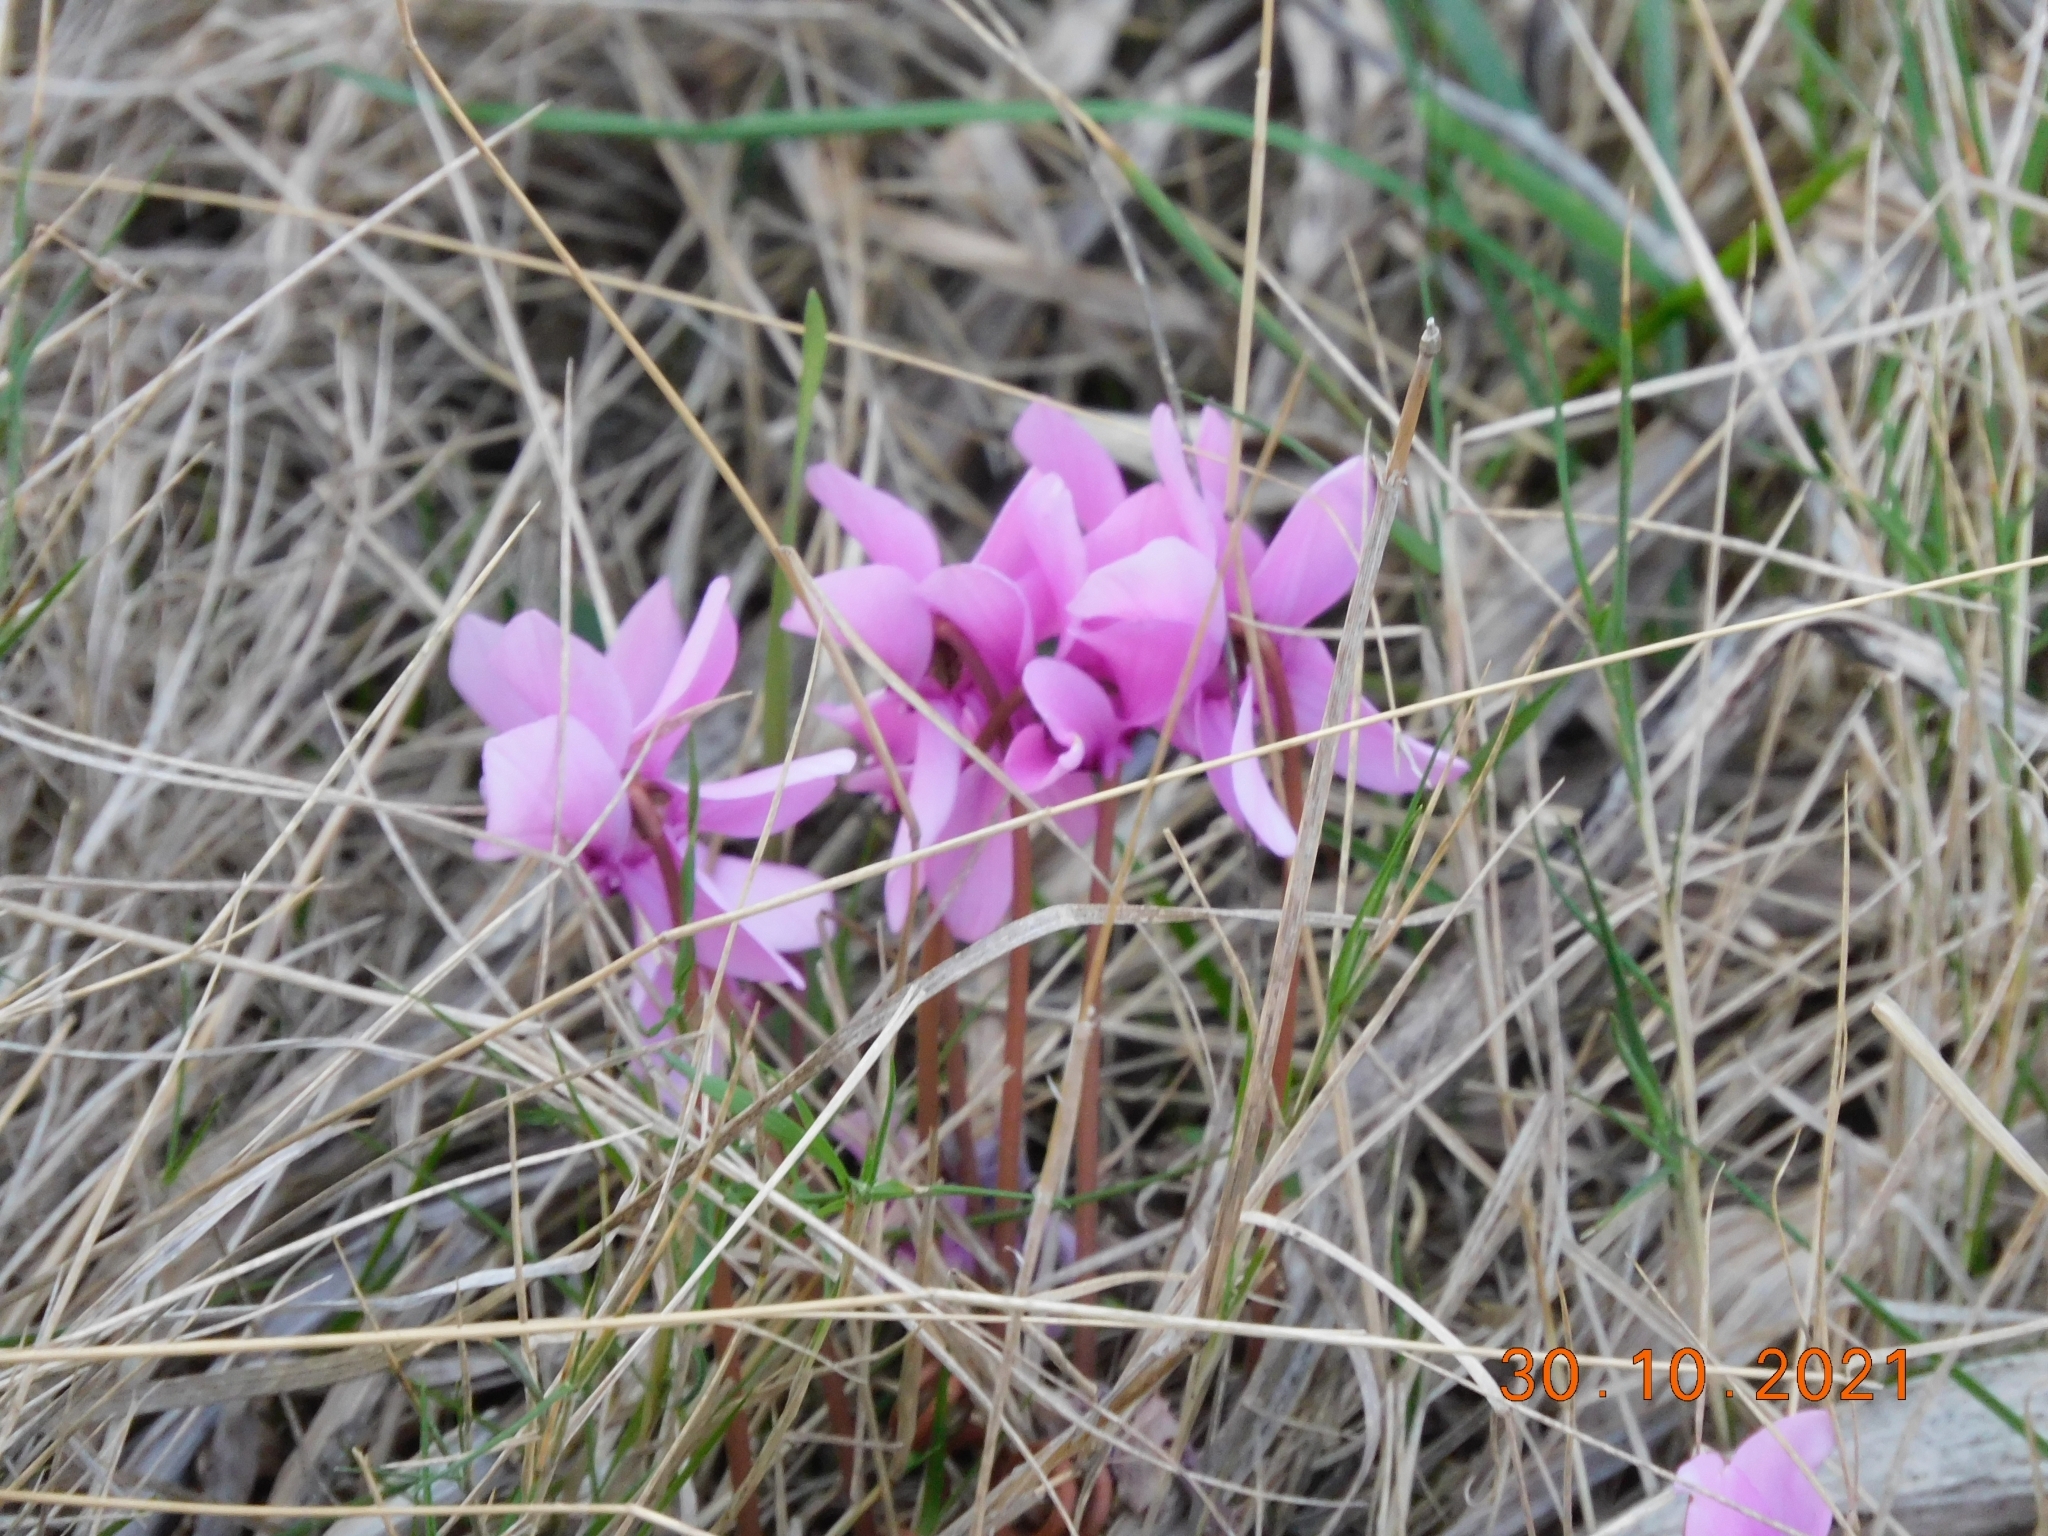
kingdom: Plantae
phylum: Tracheophyta
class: Magnoliopsida
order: Ericales
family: Primulaceae
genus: Cyclamen
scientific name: Cyclamen hederifolium
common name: Sowbread
